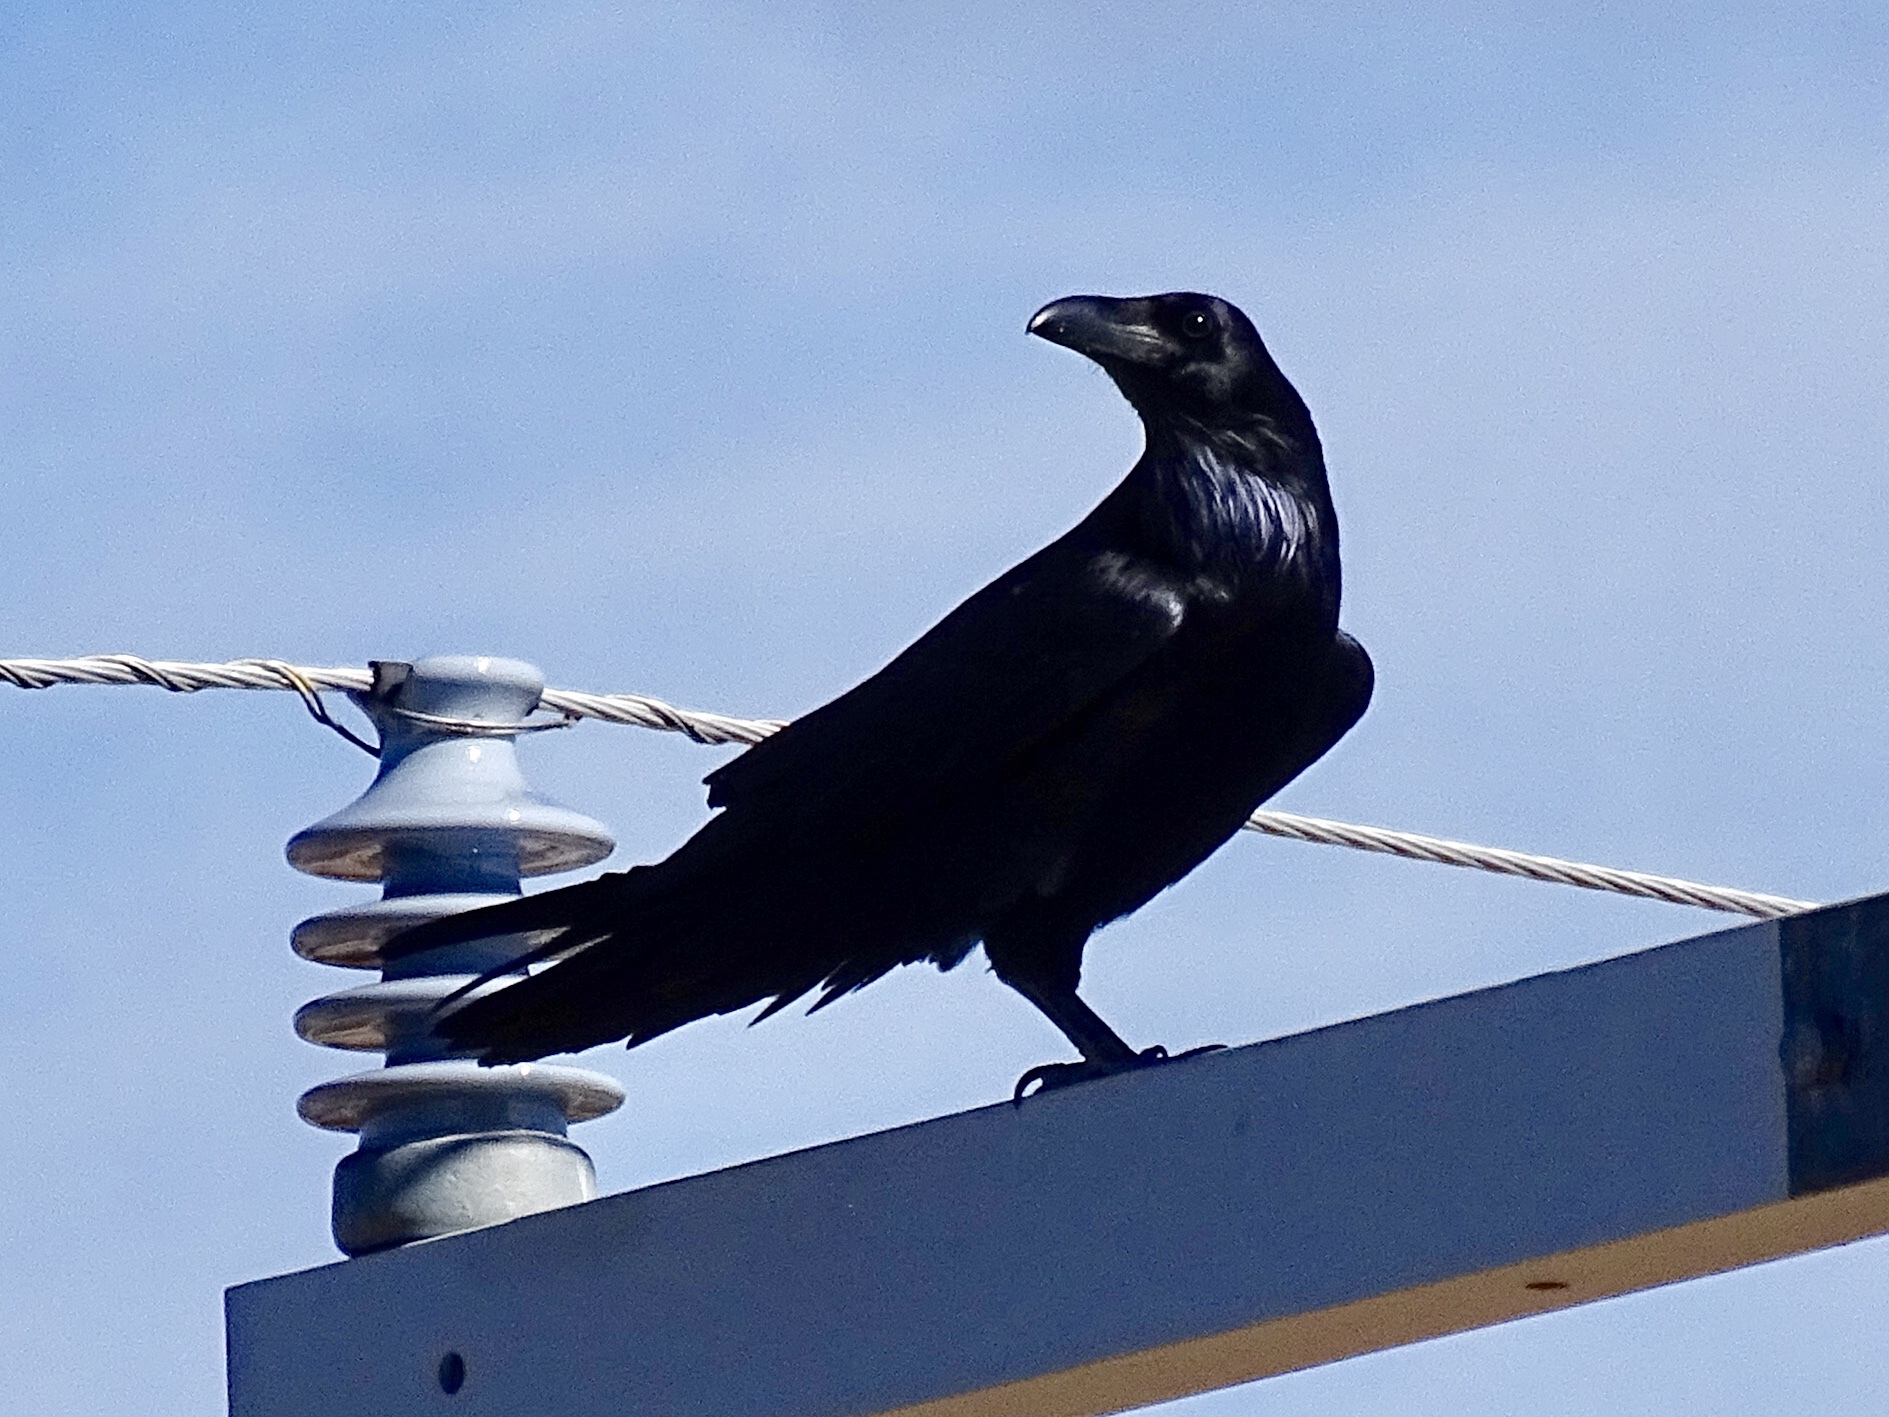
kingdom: Animalia
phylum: Chordata
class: Aves
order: Passeriformes
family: Corvidae
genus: Corvus
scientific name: Corvus corax
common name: Common raven
